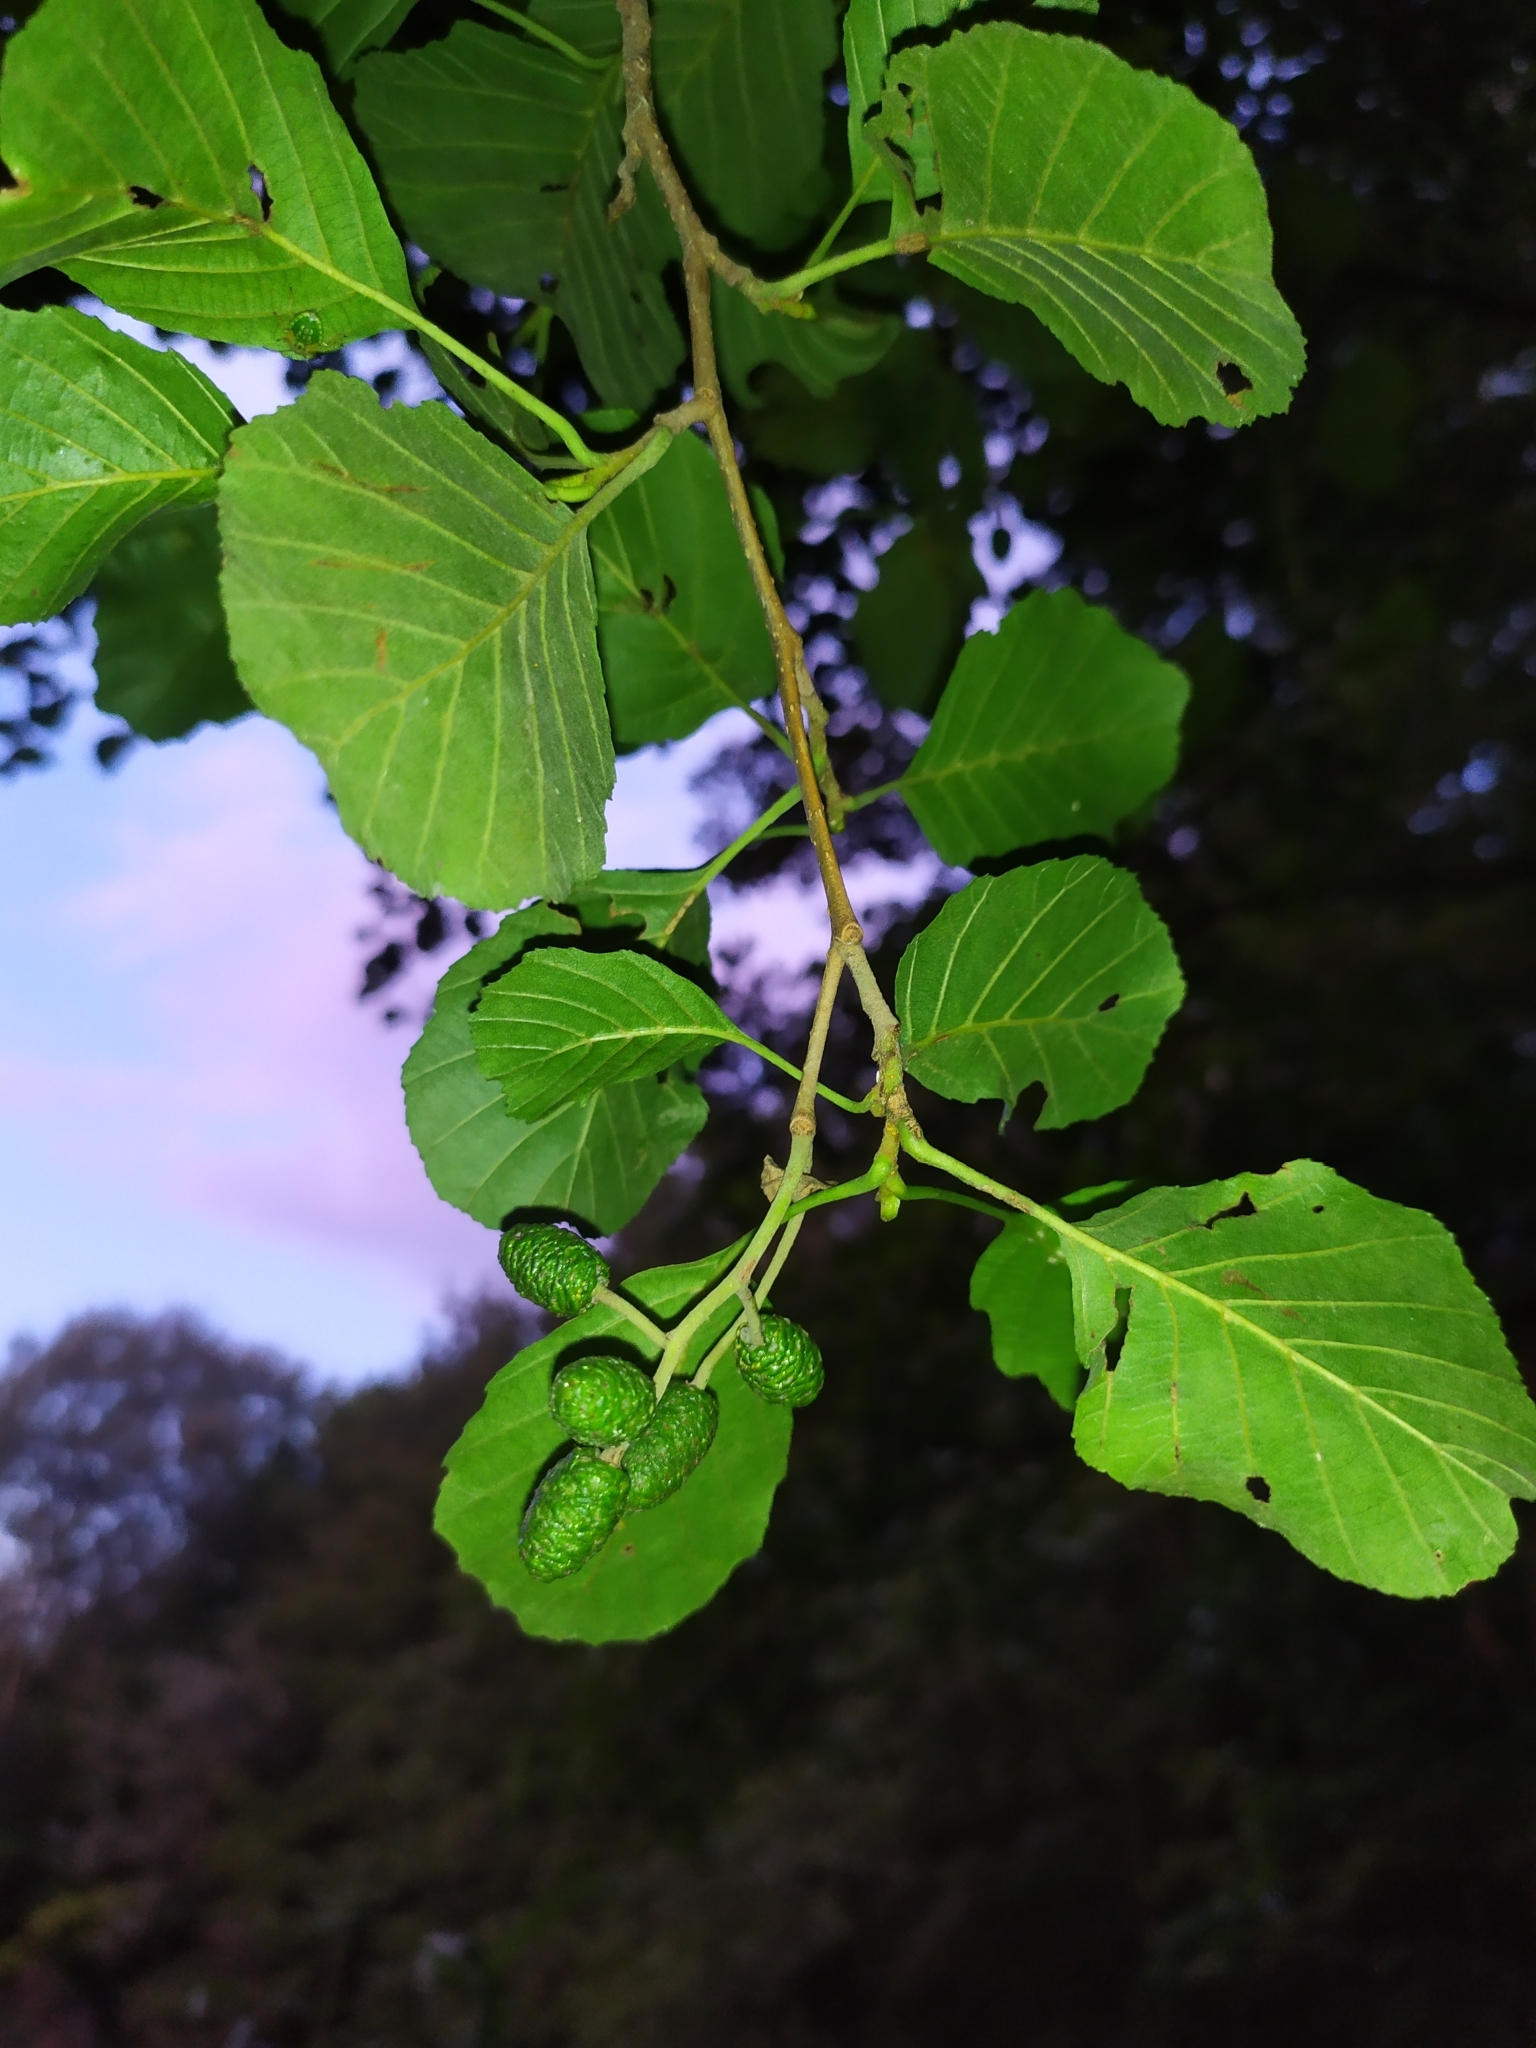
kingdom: Plantae
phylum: Tracheophyta
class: Magnoliopsida
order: Fagales
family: Betulaceae
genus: Alnus
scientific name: Alnus glutinosa
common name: Black alder
